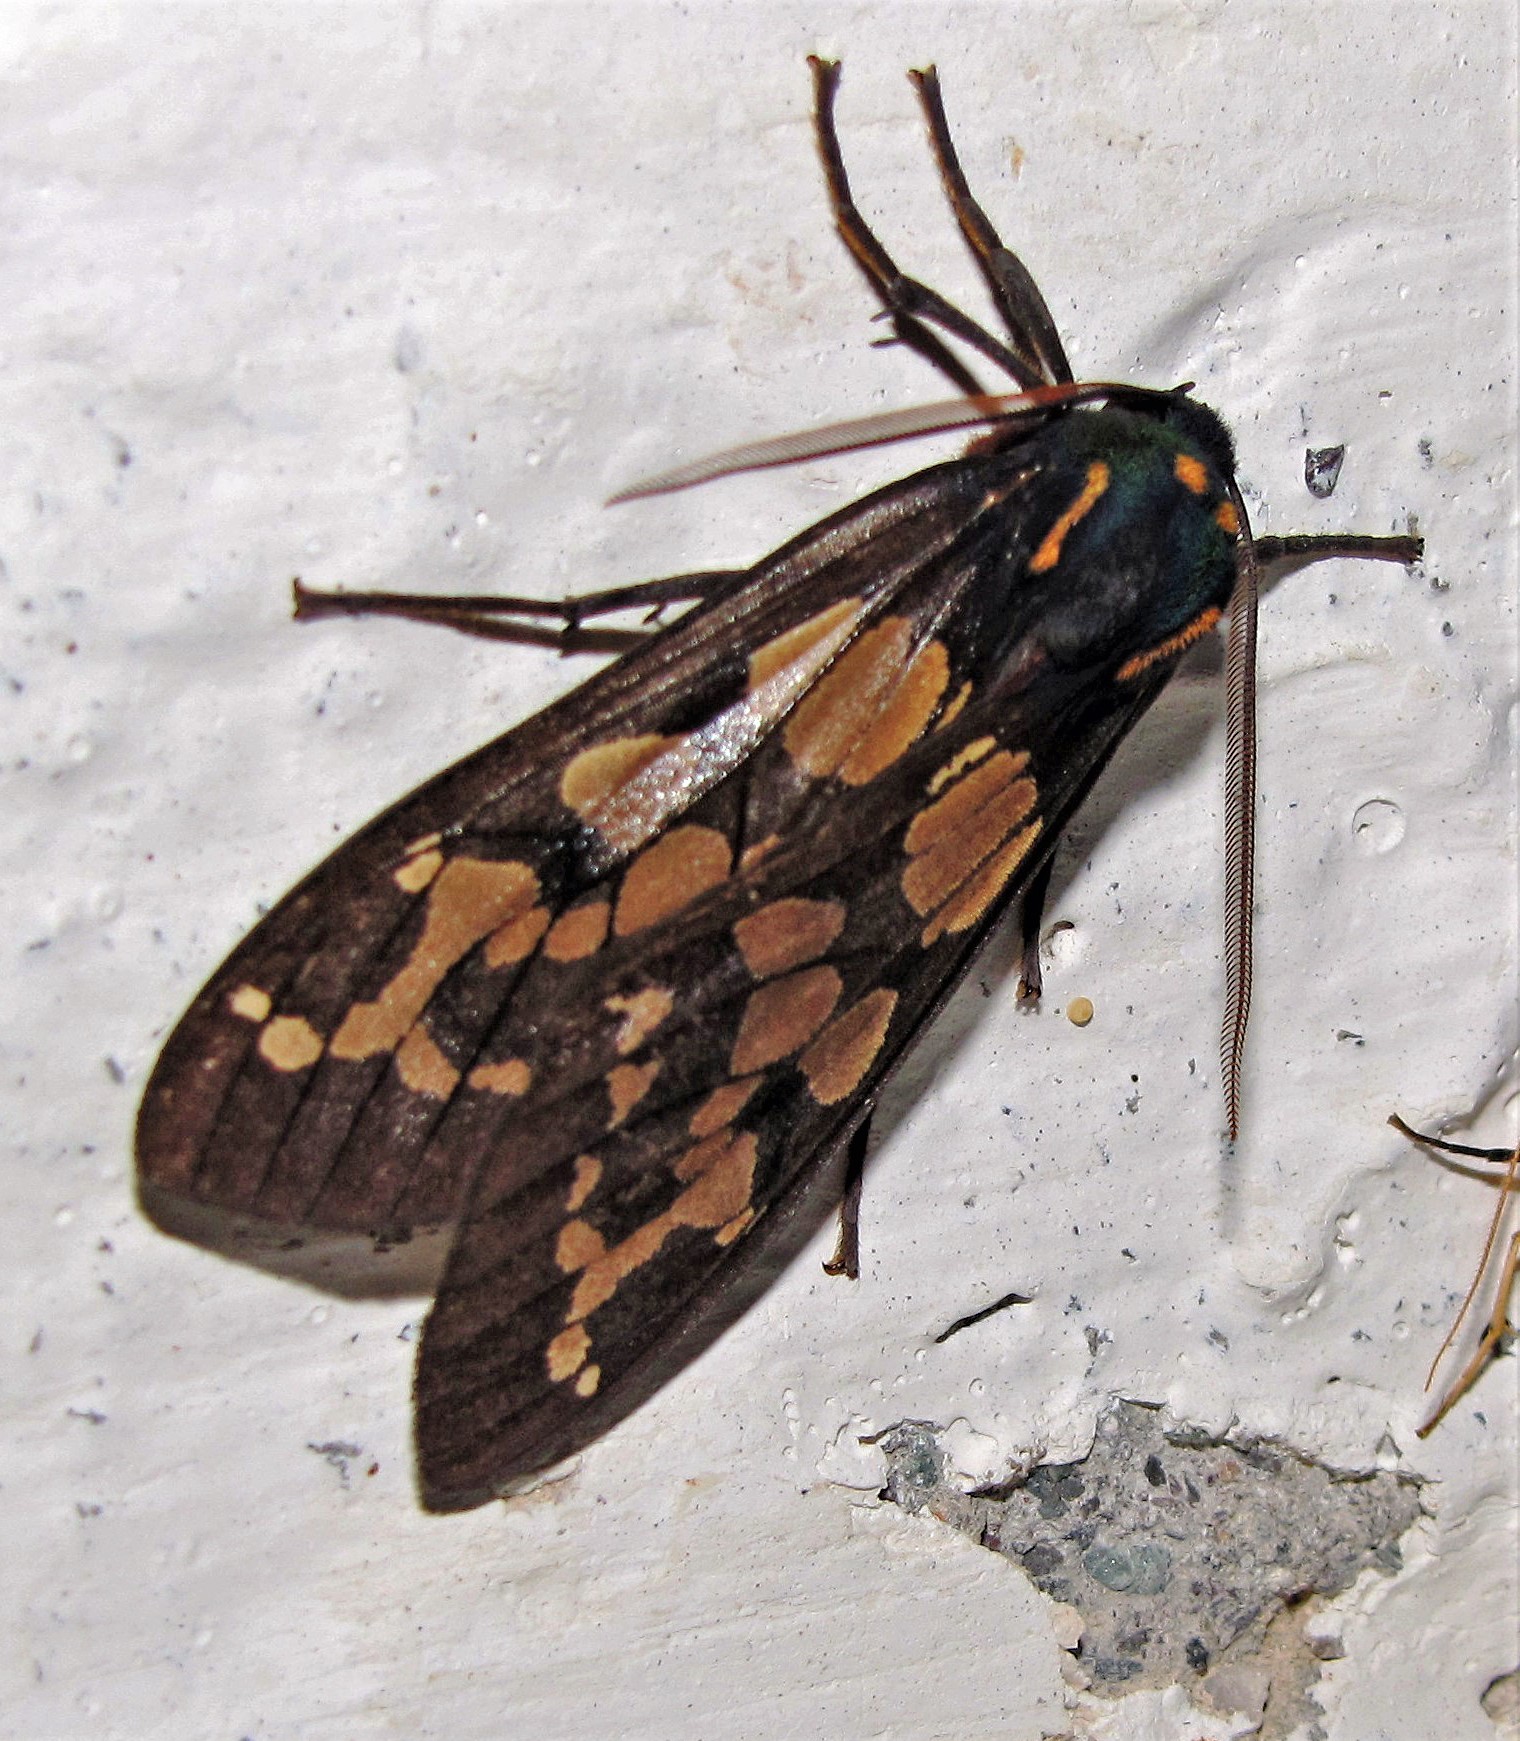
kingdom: Animalia
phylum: Arthropoda
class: Insecta
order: Lepidoptera
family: Erebidae
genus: Amastus
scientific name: Amastus formosana
